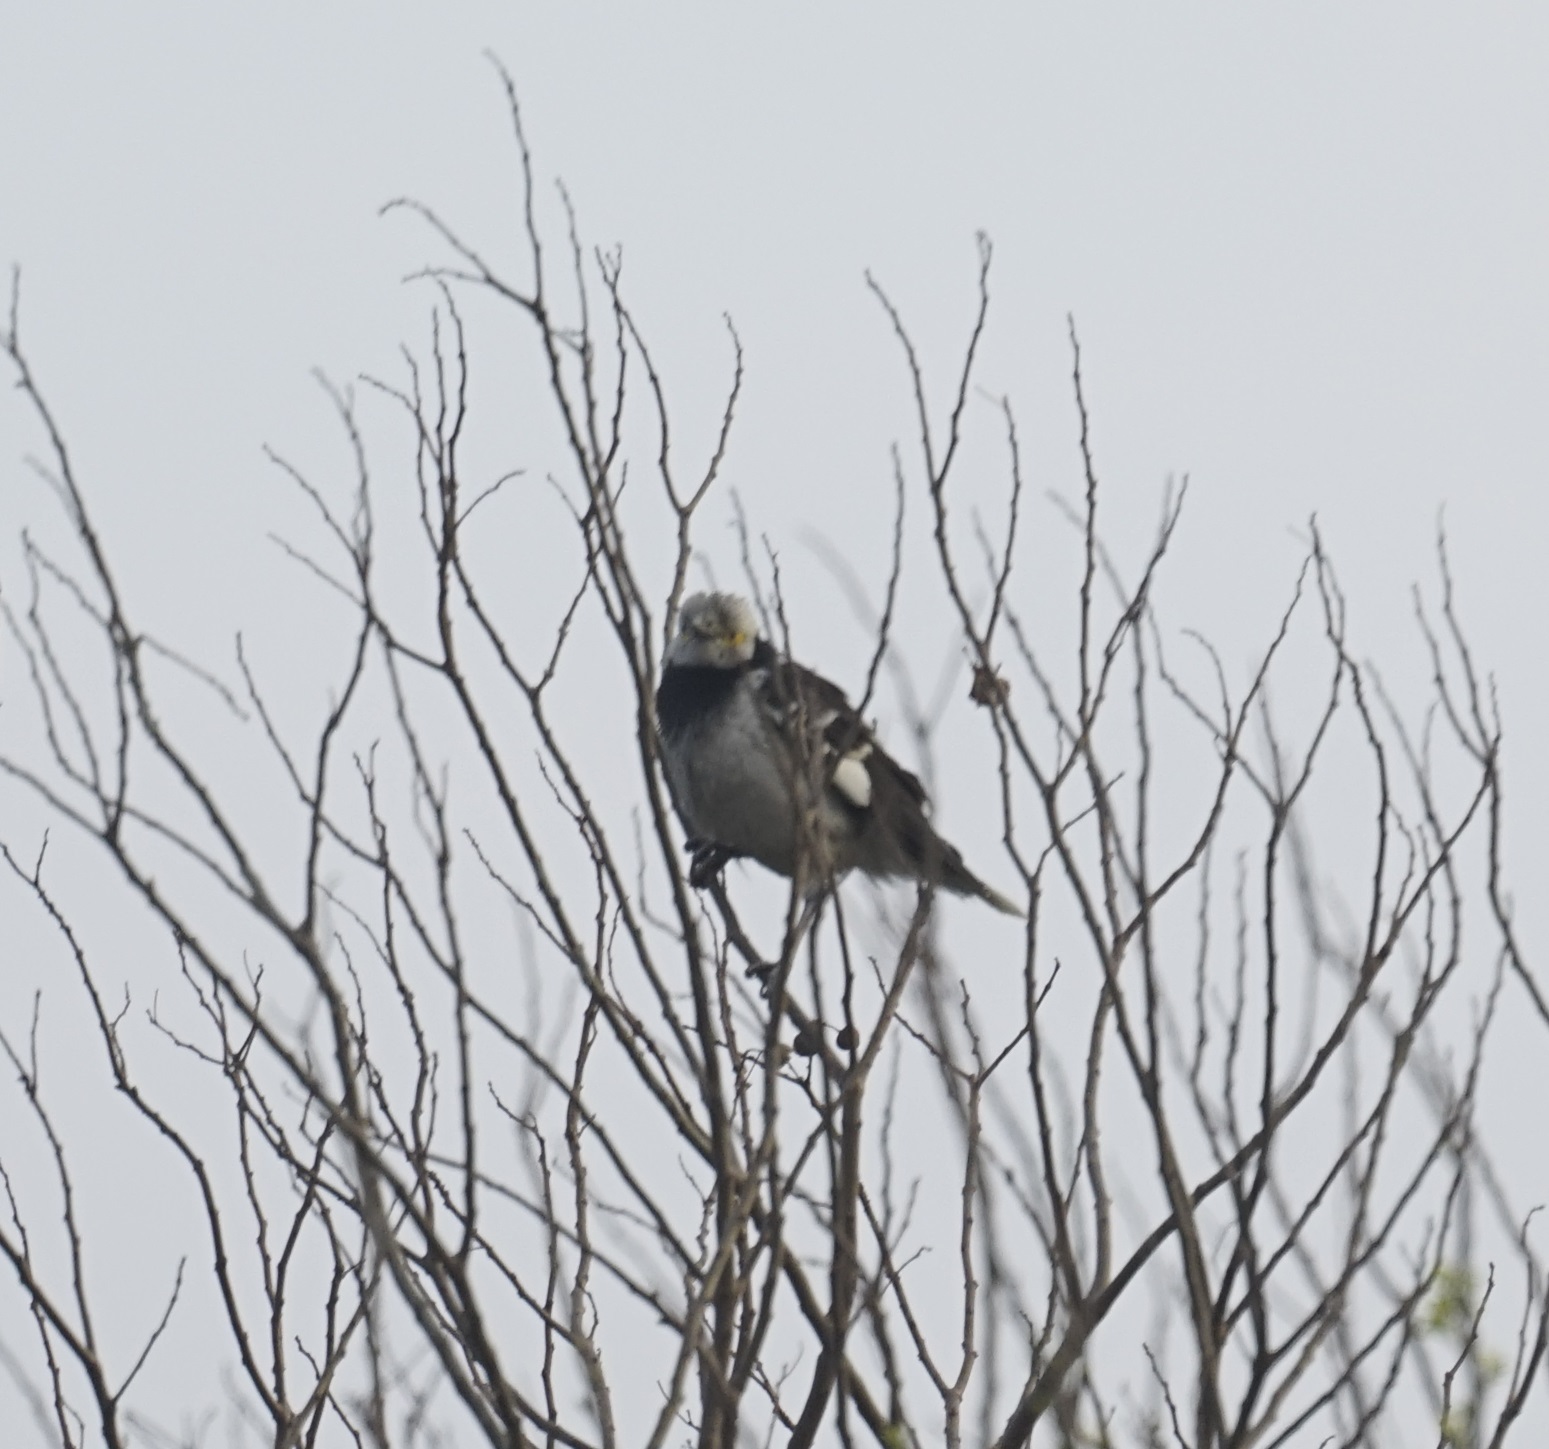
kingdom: Animalia
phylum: Chordata
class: Aves
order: Passeriformes
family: Sturnidae
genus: Gracupica
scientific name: Gracupica nigricollis
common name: Black-collared starling
